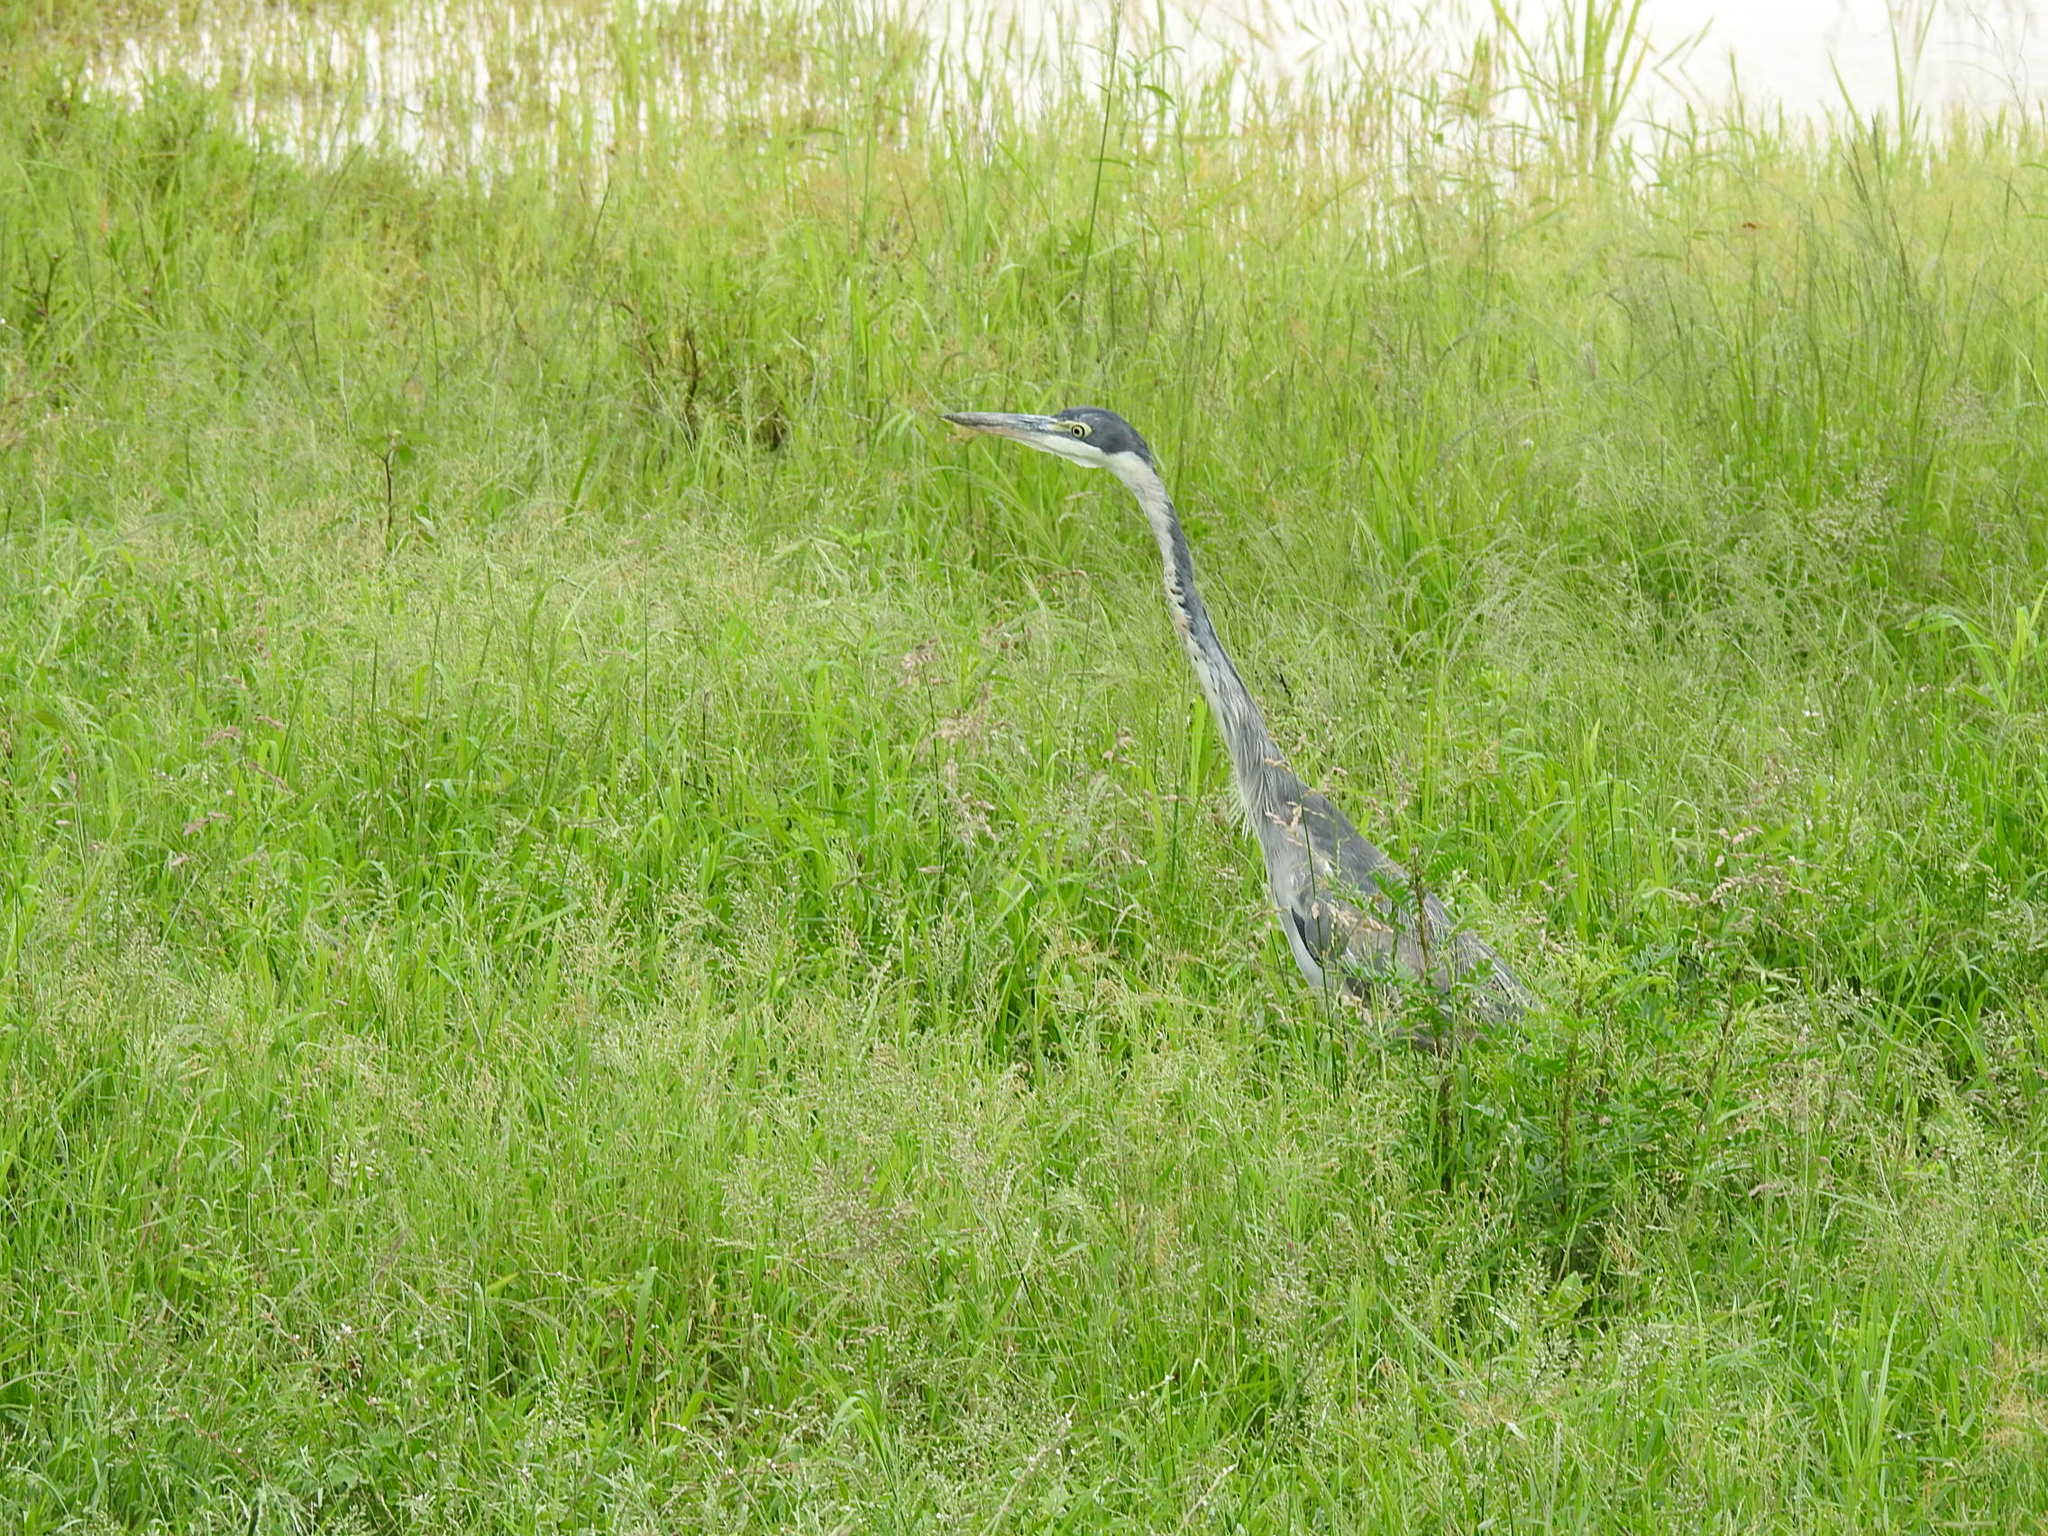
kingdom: Animalia
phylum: Chordata
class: Aves
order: Pelecaniformes
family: Ardeidae
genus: Ardea
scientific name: Ardea melanocephala
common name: Black-headed heron
